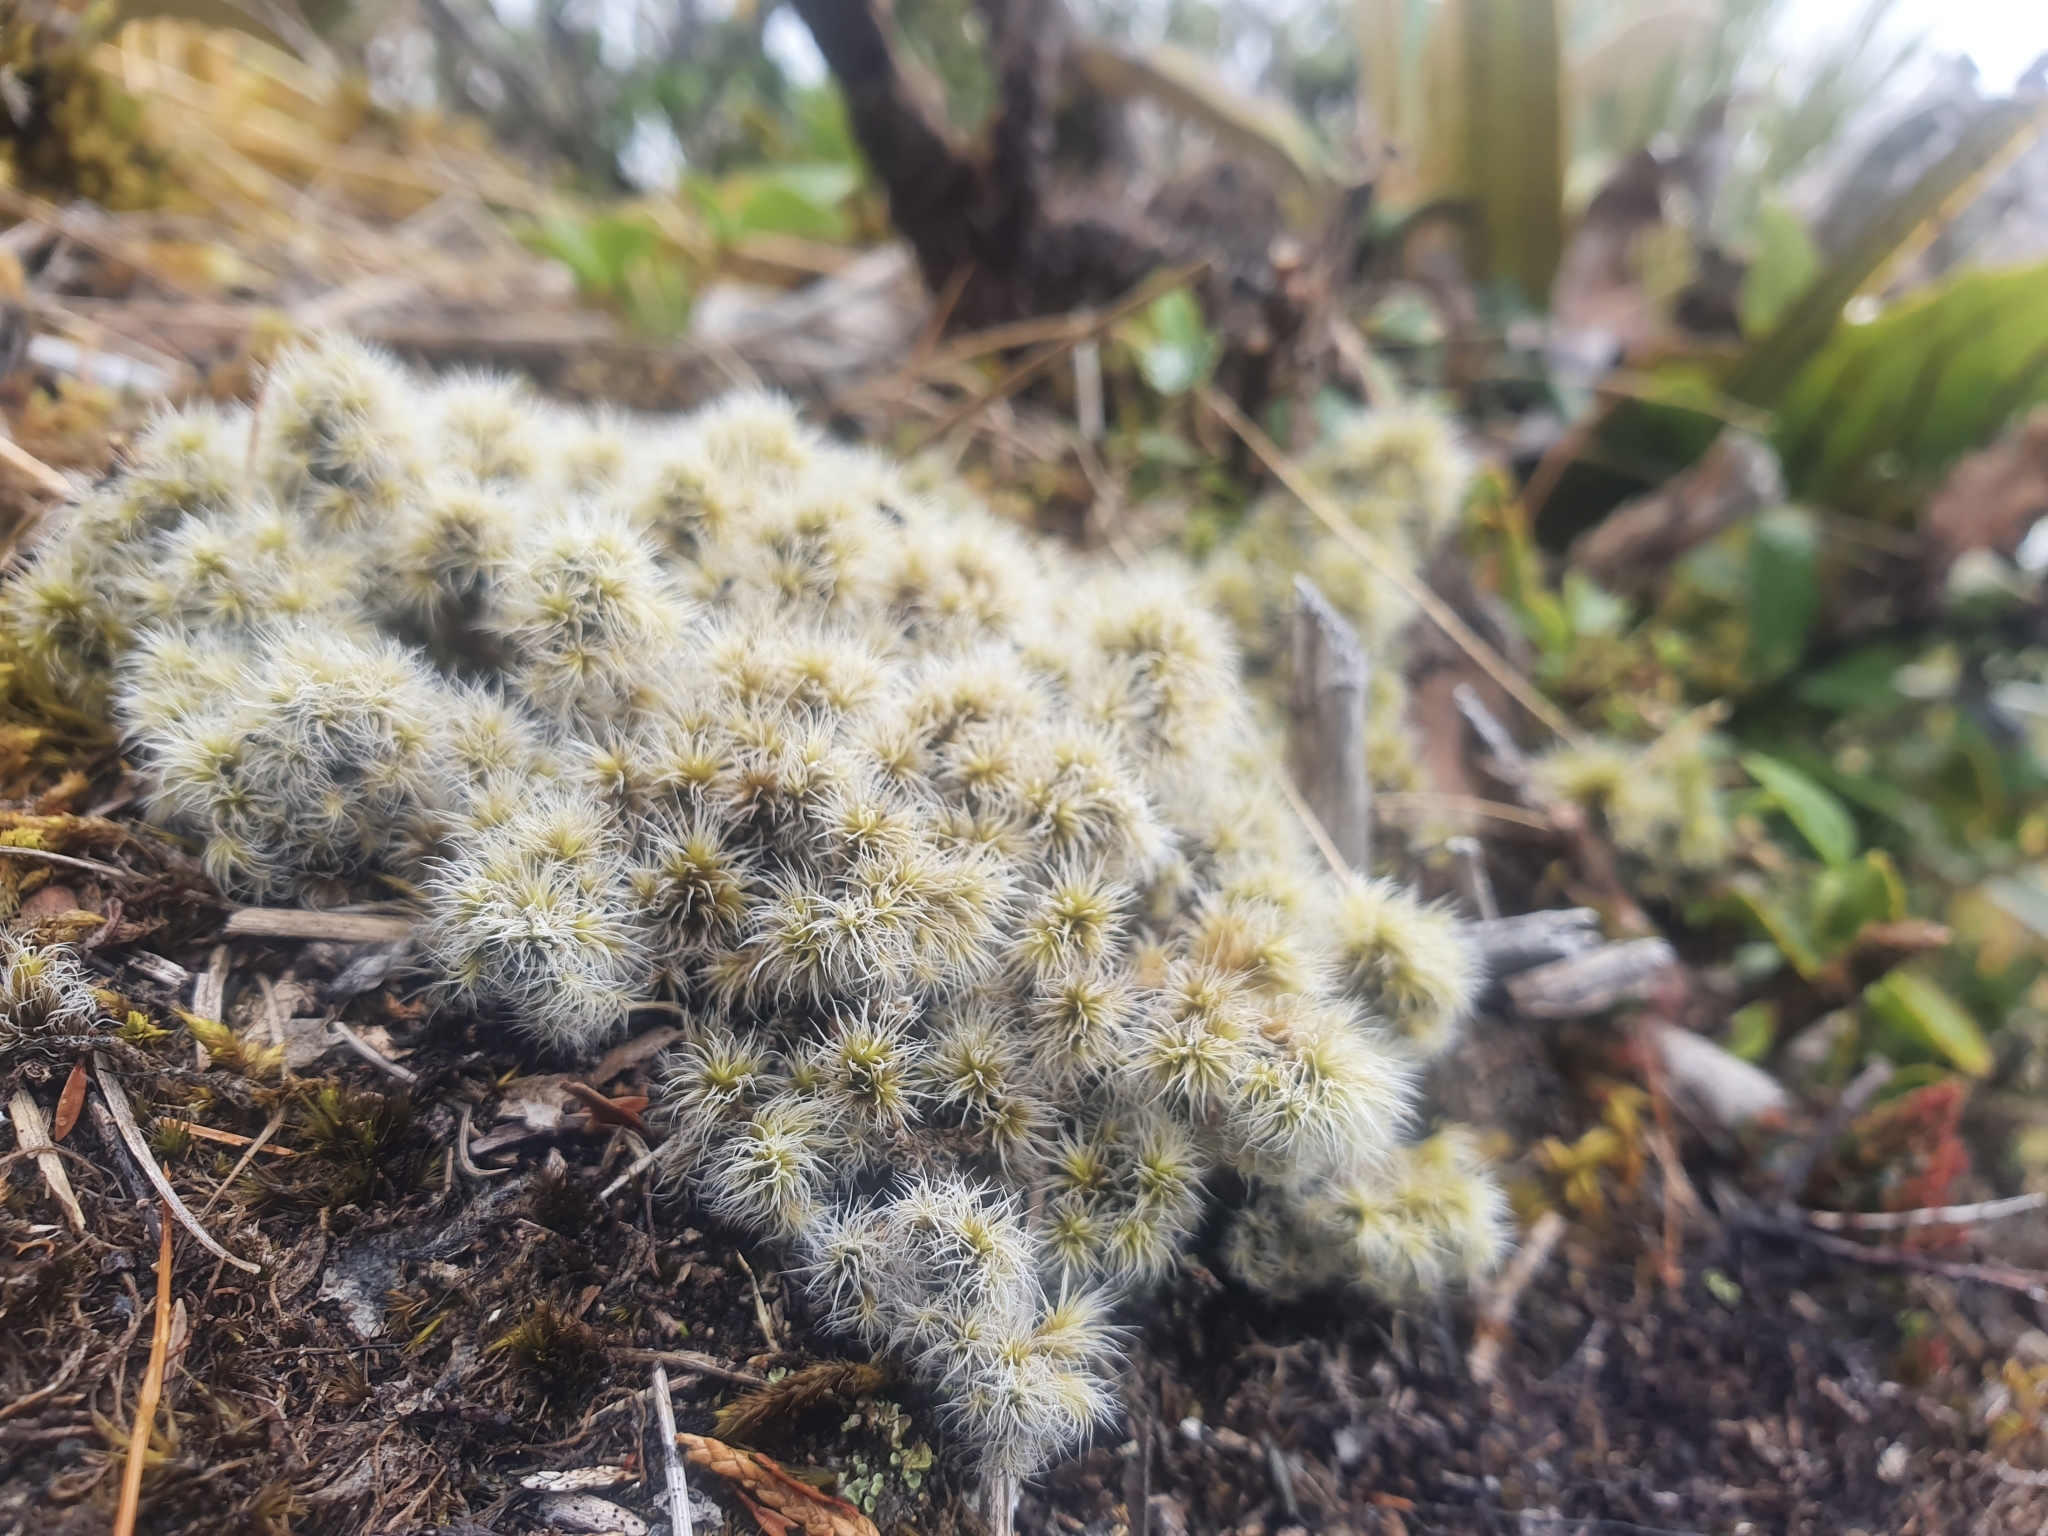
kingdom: Plantae
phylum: Bryophyta
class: Bryopsida
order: Grimmiales
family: Grimmiaceae
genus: Racomitrium
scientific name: Racomitrium lanuginosum
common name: Hoary rock moss
